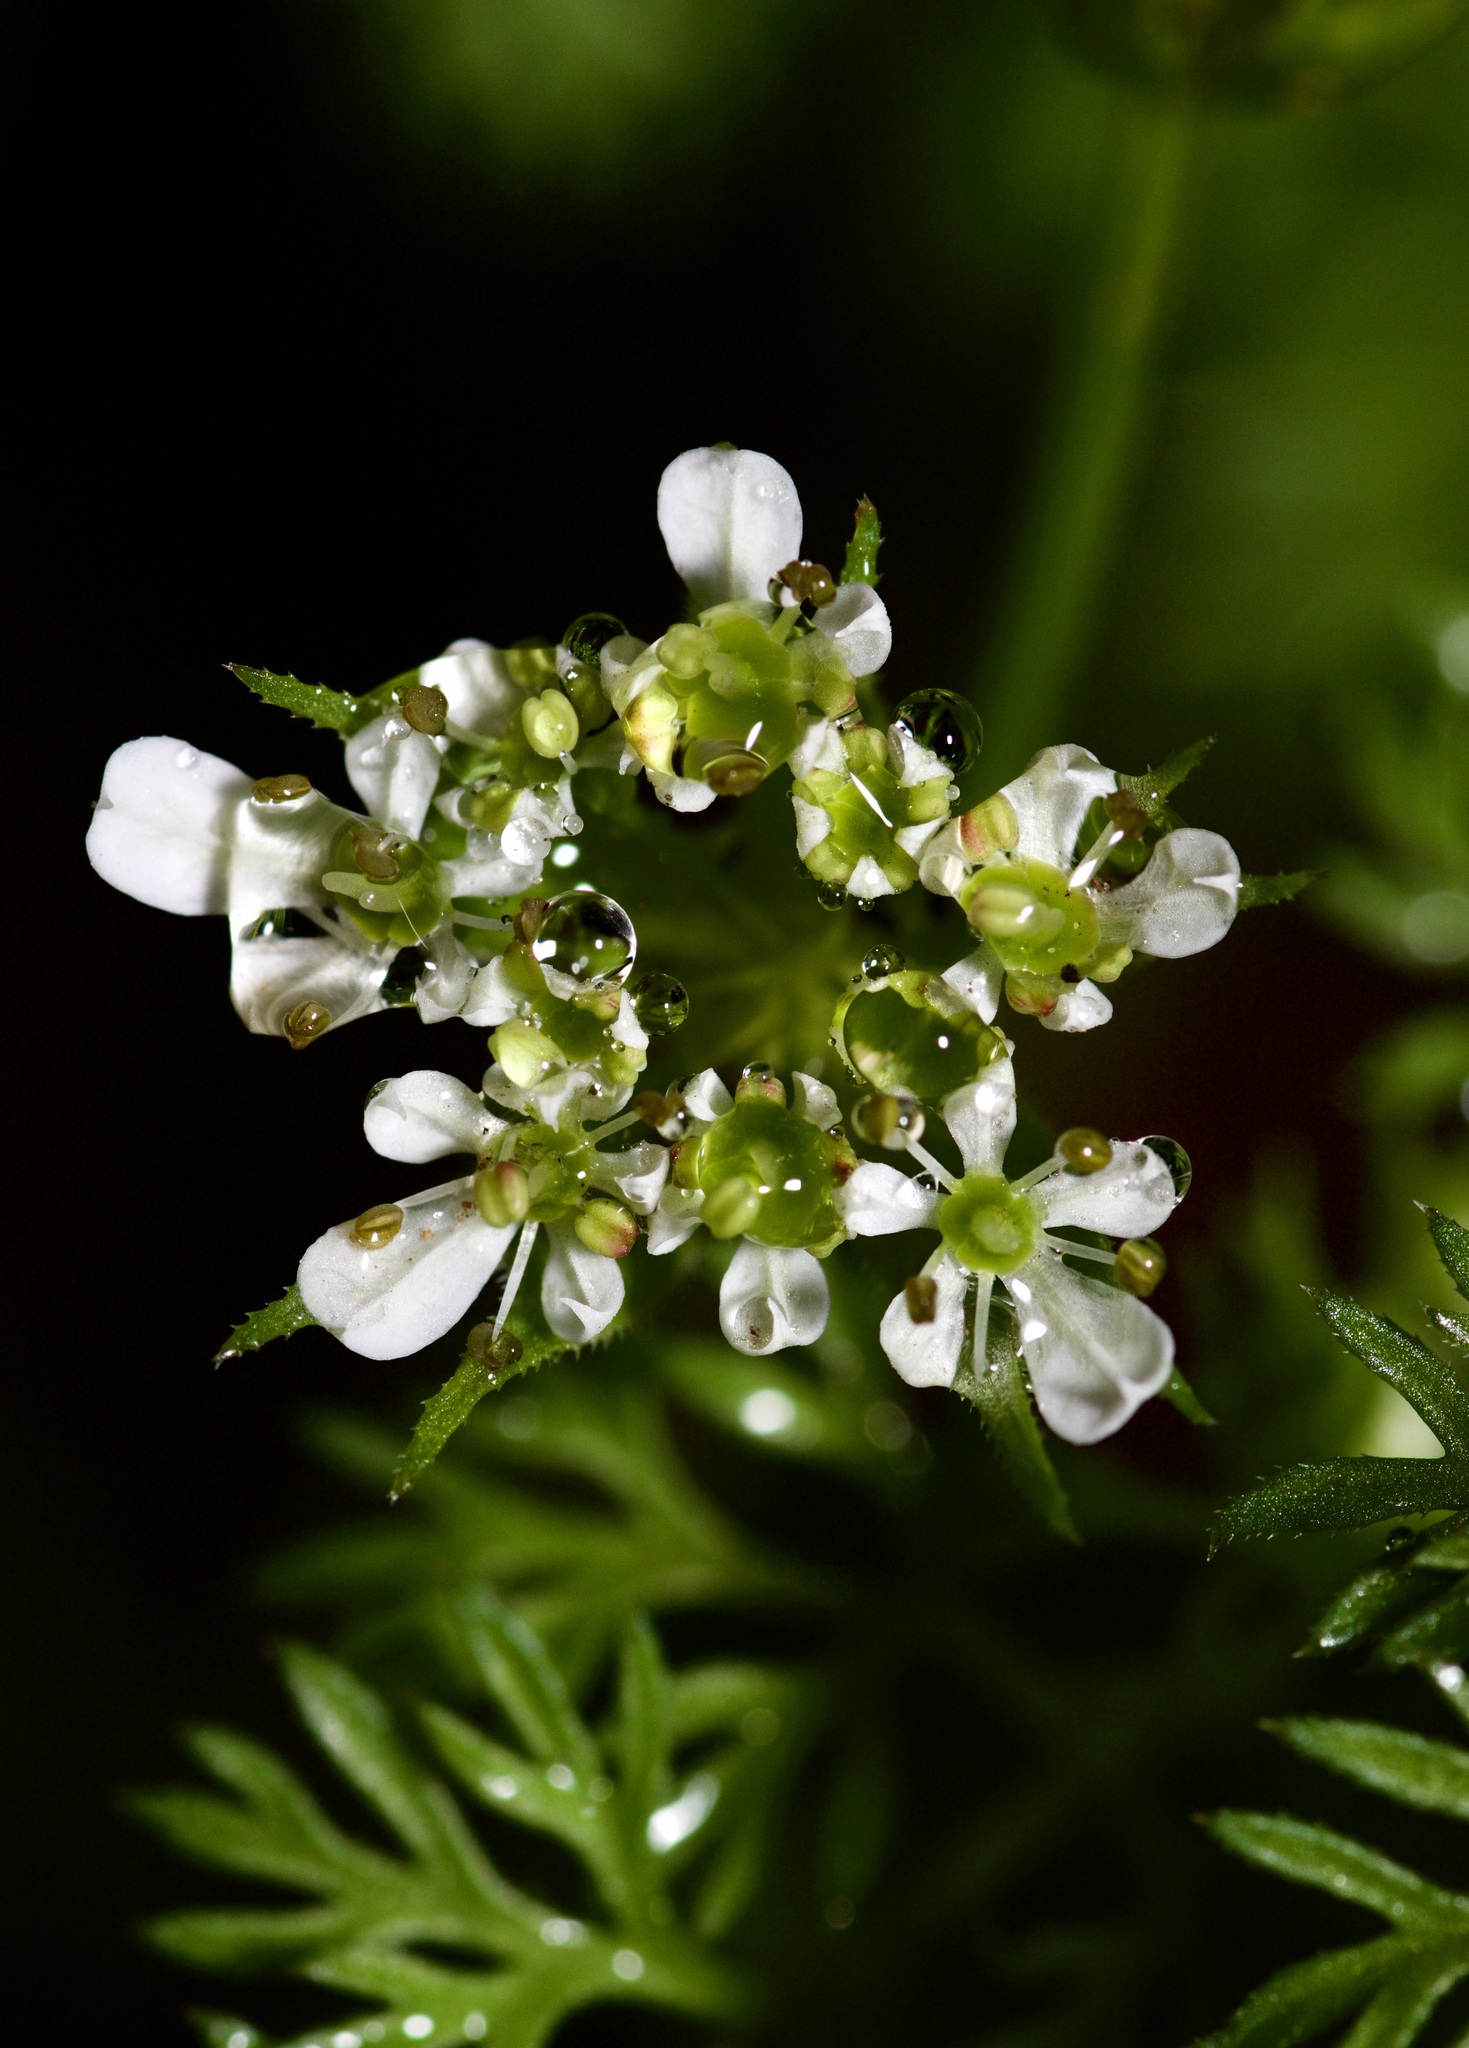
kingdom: Plantae
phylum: Tracheophyta
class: Magnoliopsida
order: Apiales
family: Apiaceae
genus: Scandix
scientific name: Scandix pecten-veneris
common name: Shepherd's-needle
